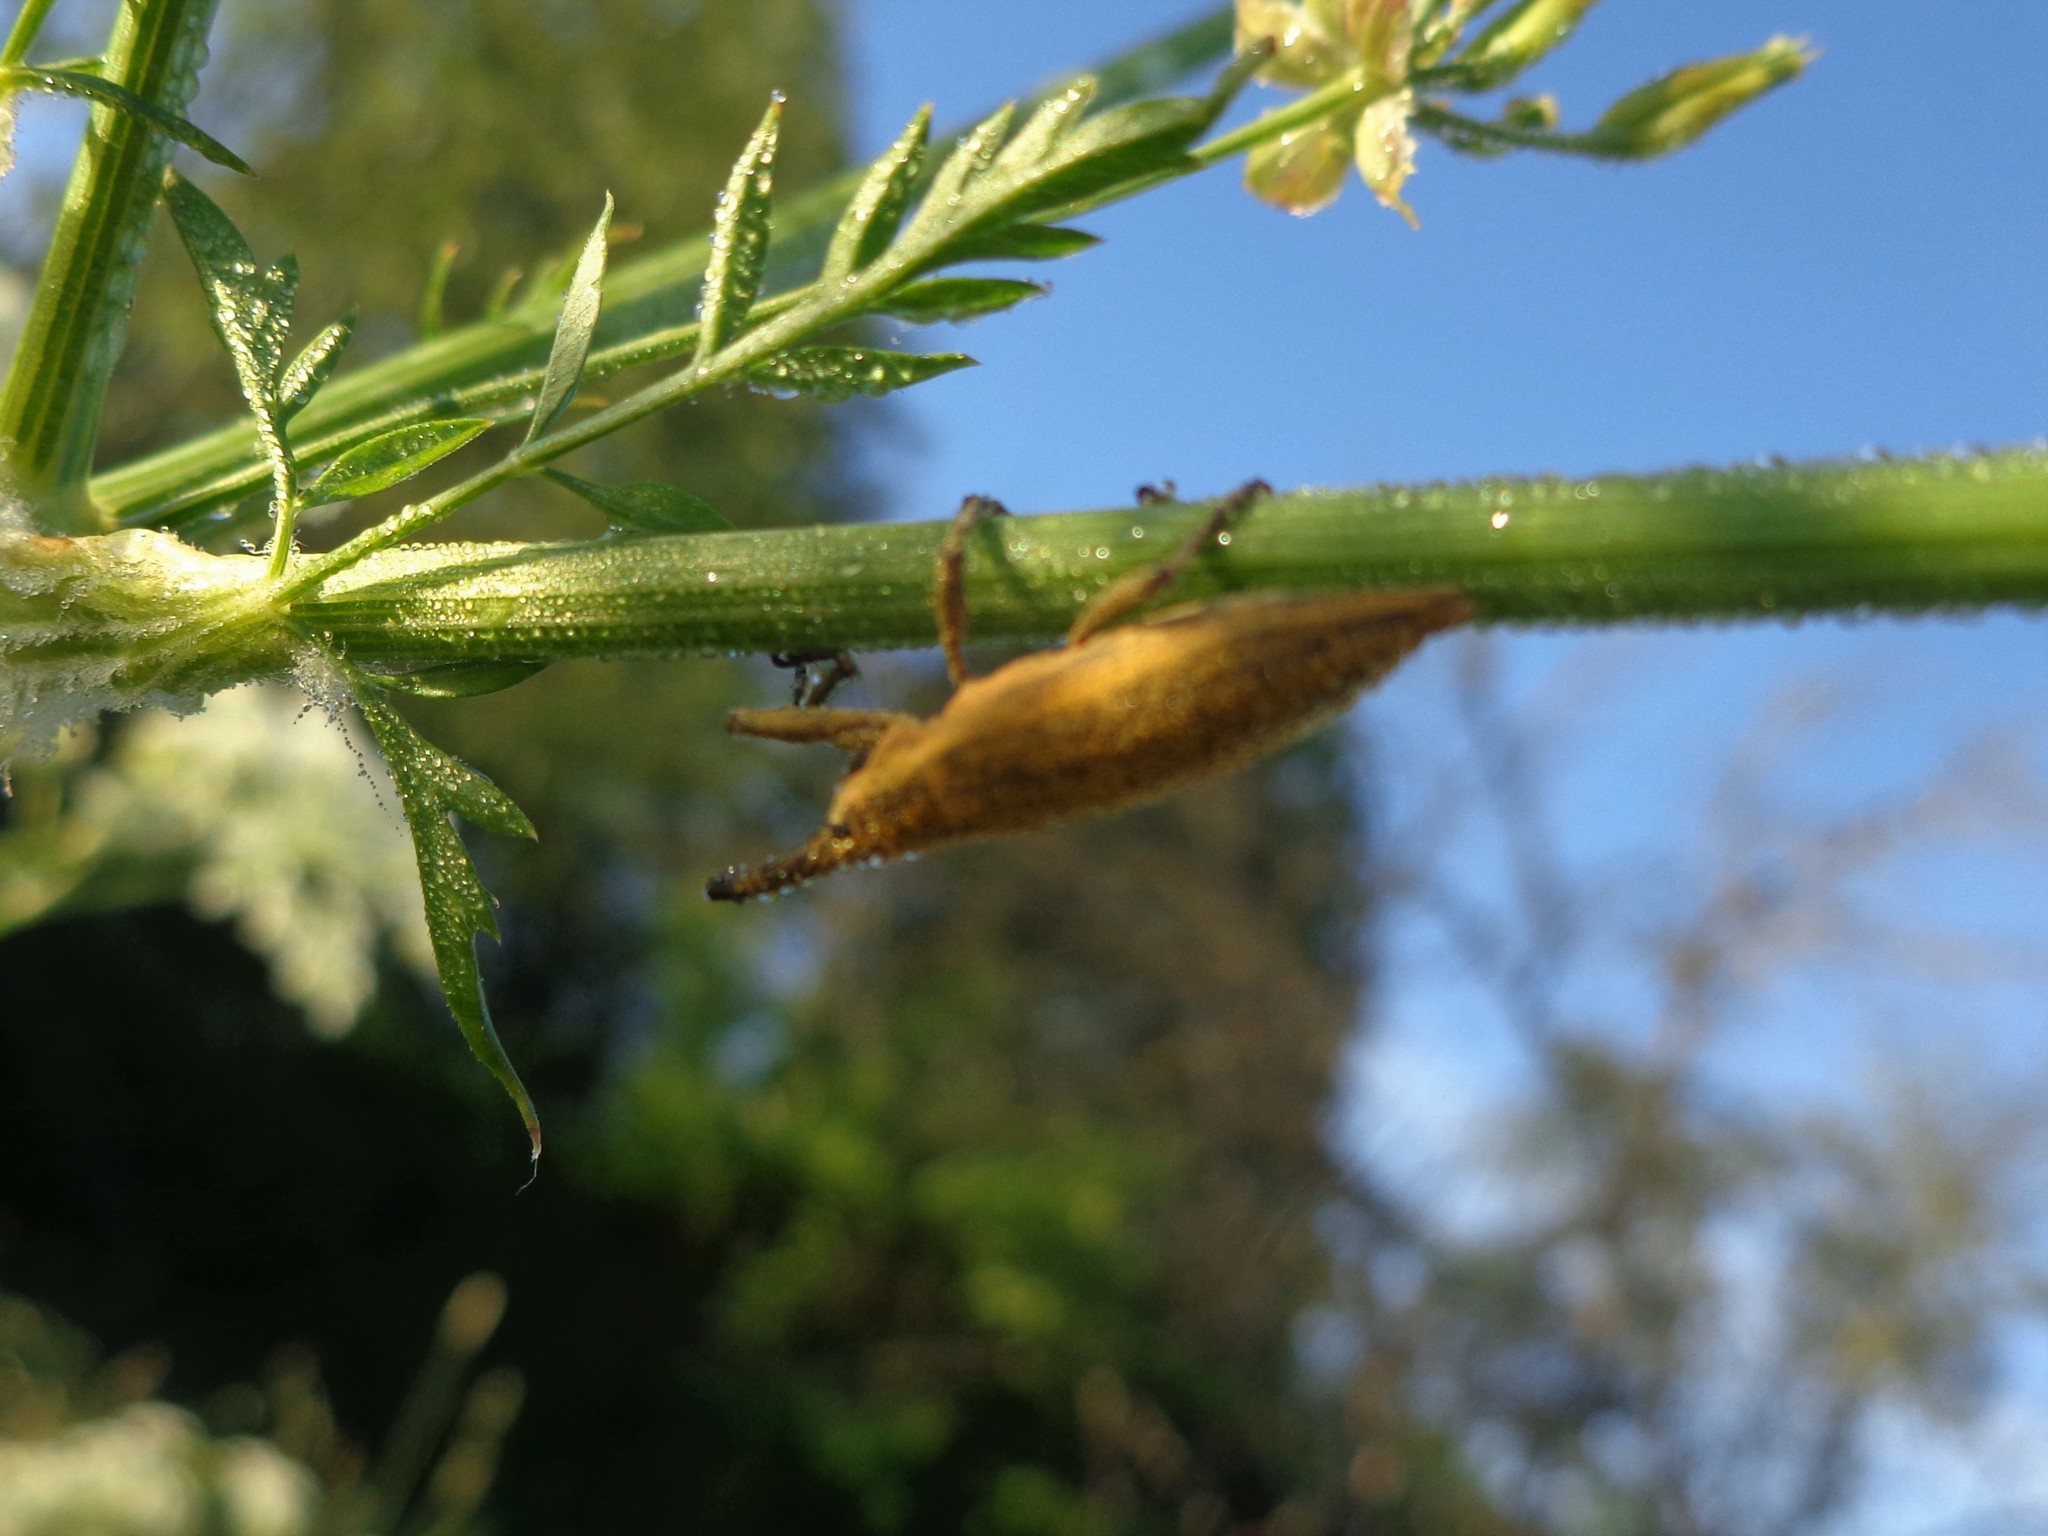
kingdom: Animalia
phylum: Arthropoda
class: Insecta
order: Coleoptera
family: Curculionidae
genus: Lixus
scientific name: Lixus iridis
